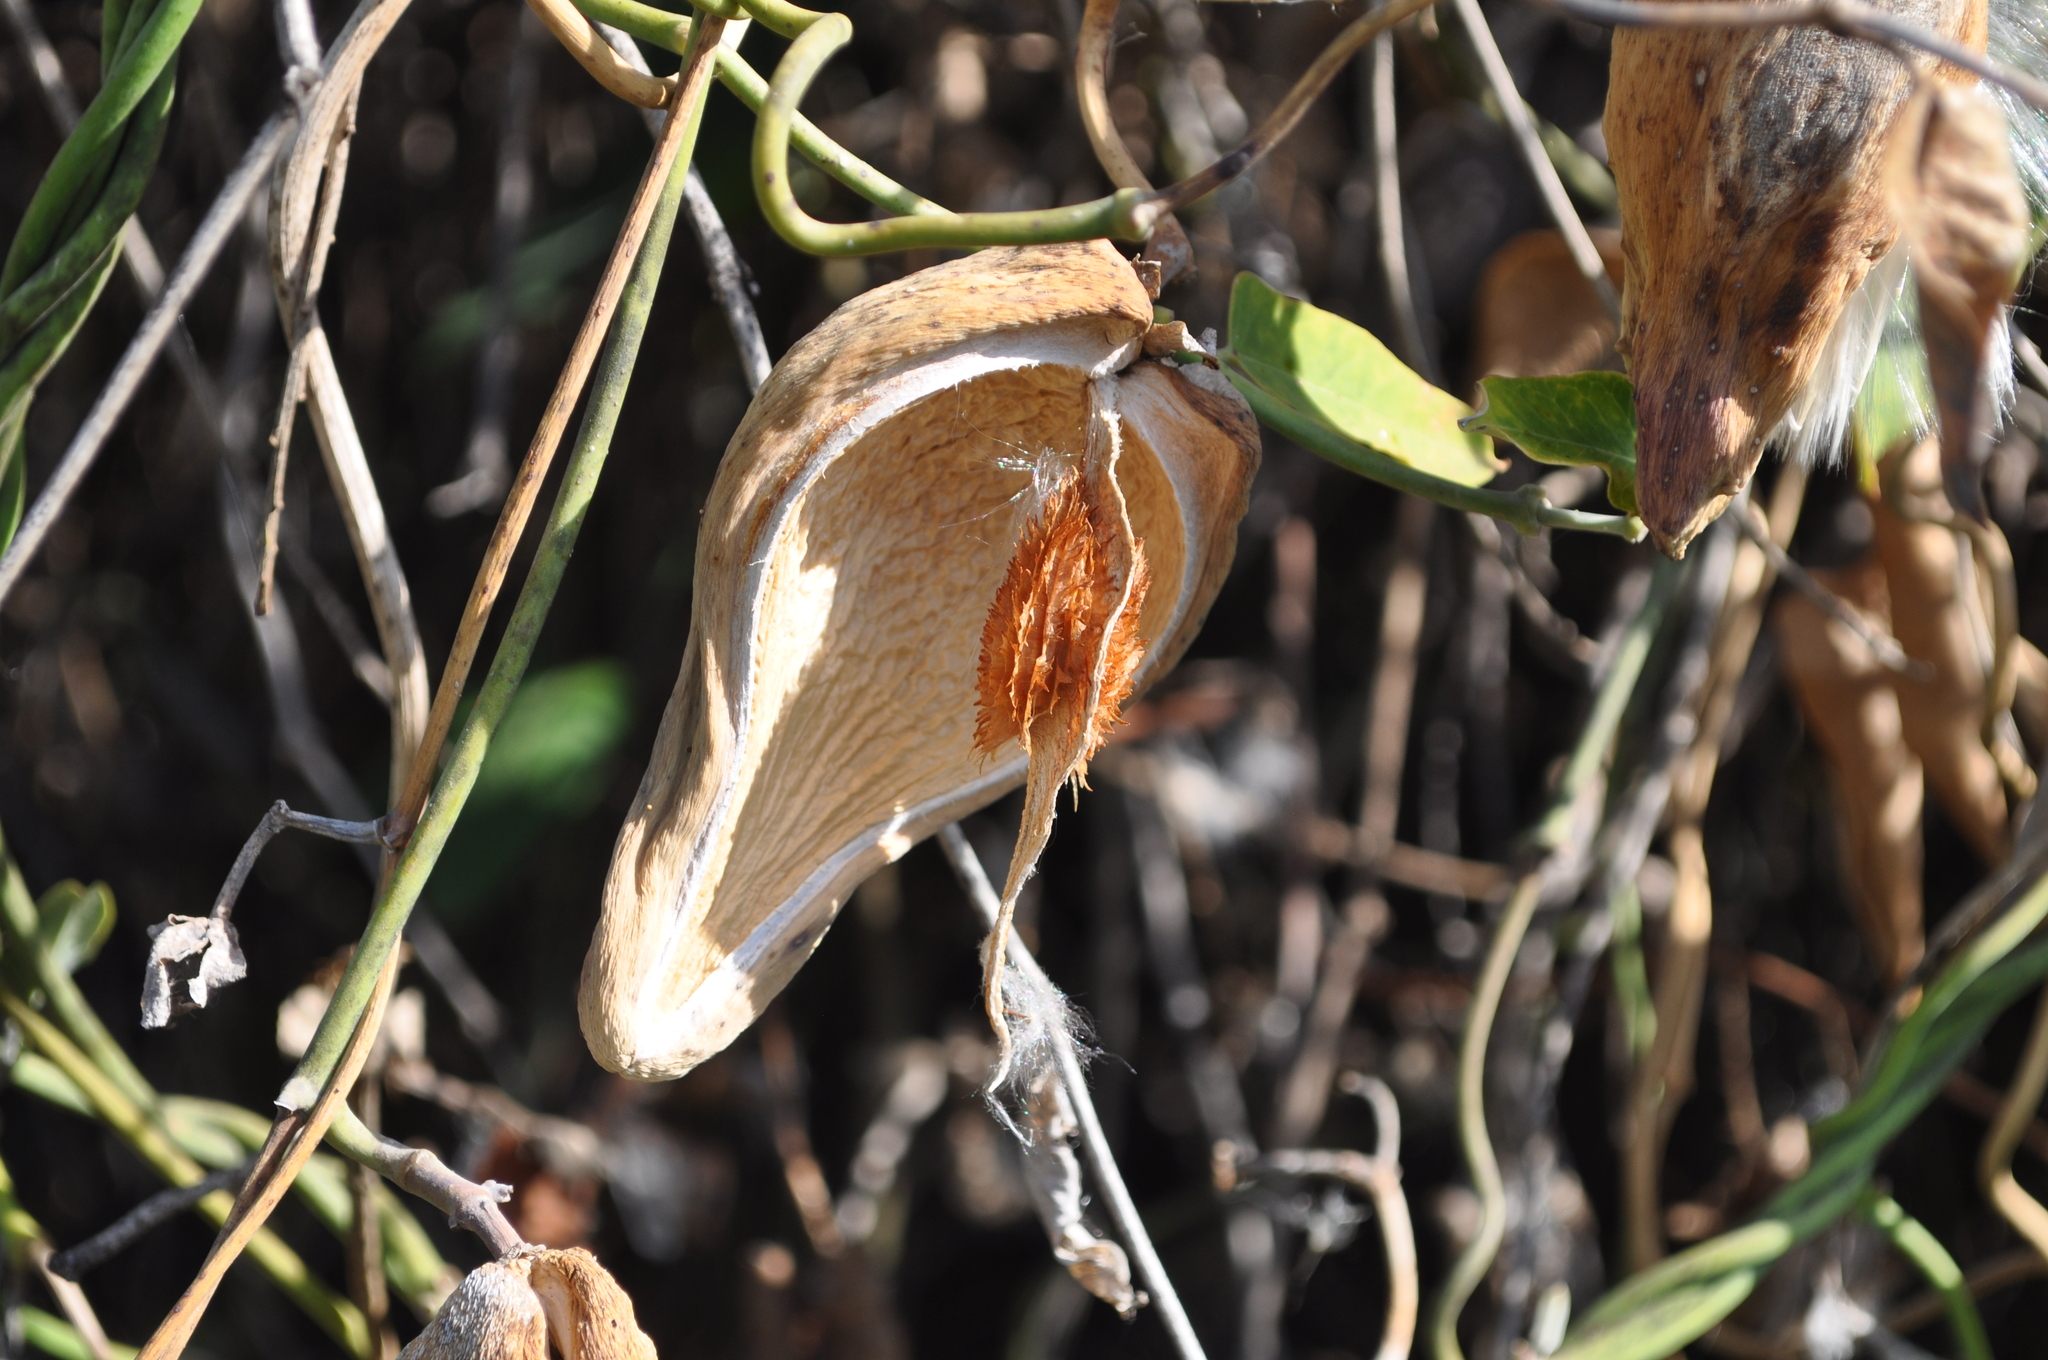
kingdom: Plantae
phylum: Tracheophyta
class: Magnoliopsida
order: Gentianales
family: Apocynaceae
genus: Araujia
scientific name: Araujia sericifera
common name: White bladderflower
